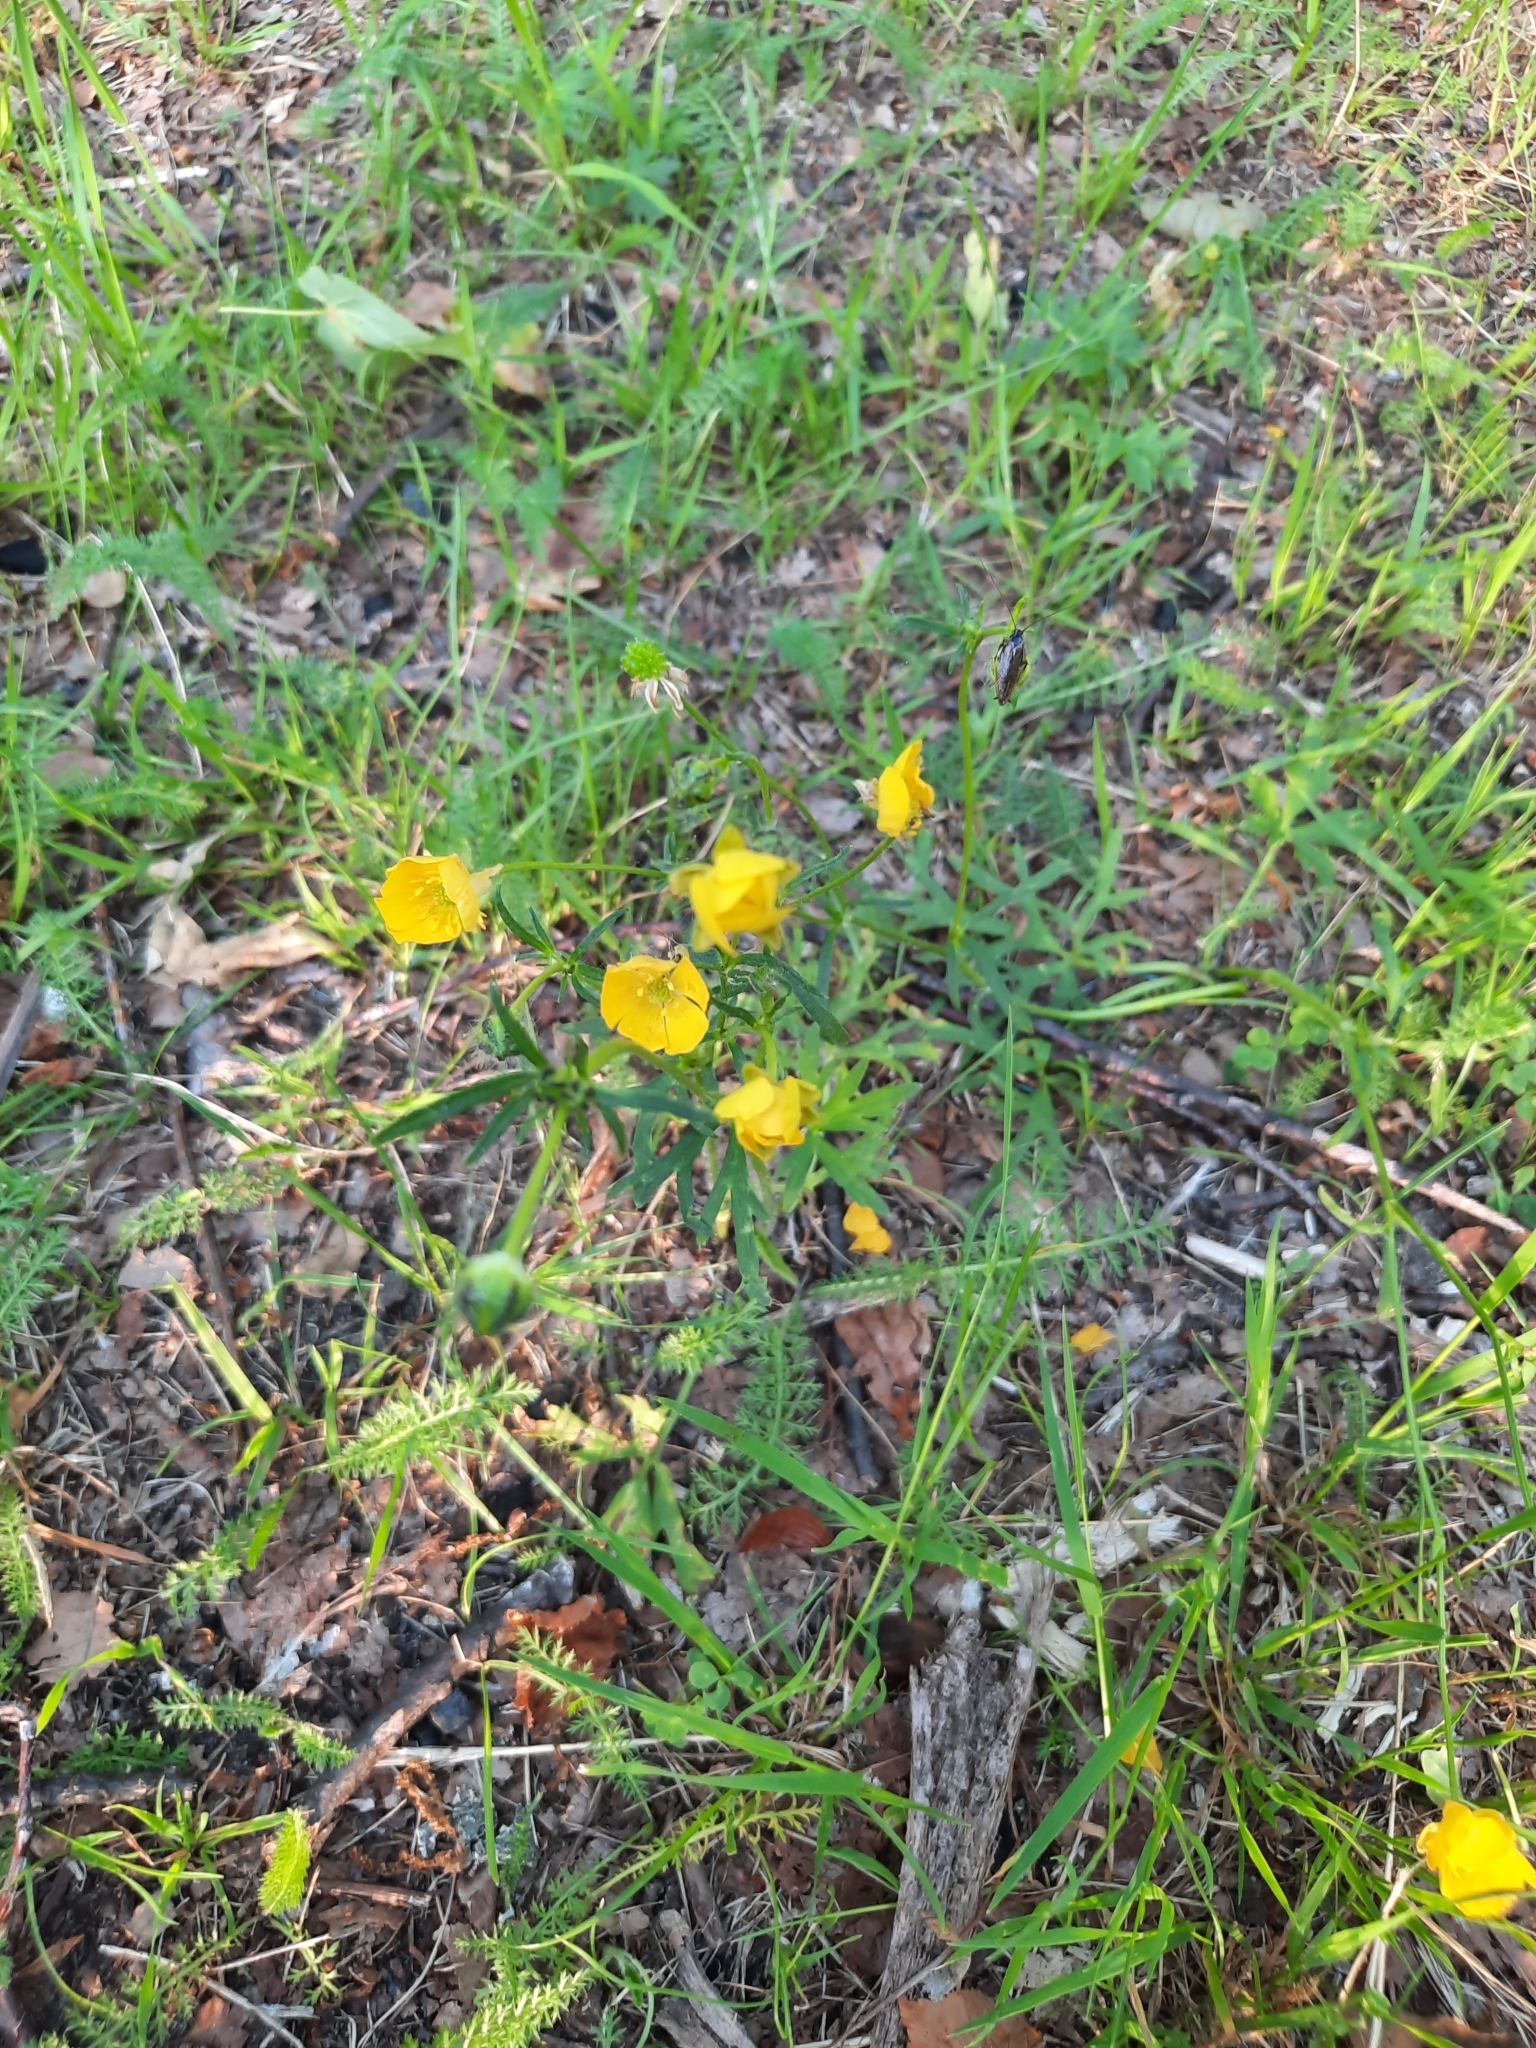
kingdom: Plantae
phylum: Tracheophyta
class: Magnoliopsida
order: Ranunculales
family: Ranunculaceae
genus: Ranunculus
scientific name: Ranunculus polyanthemos
